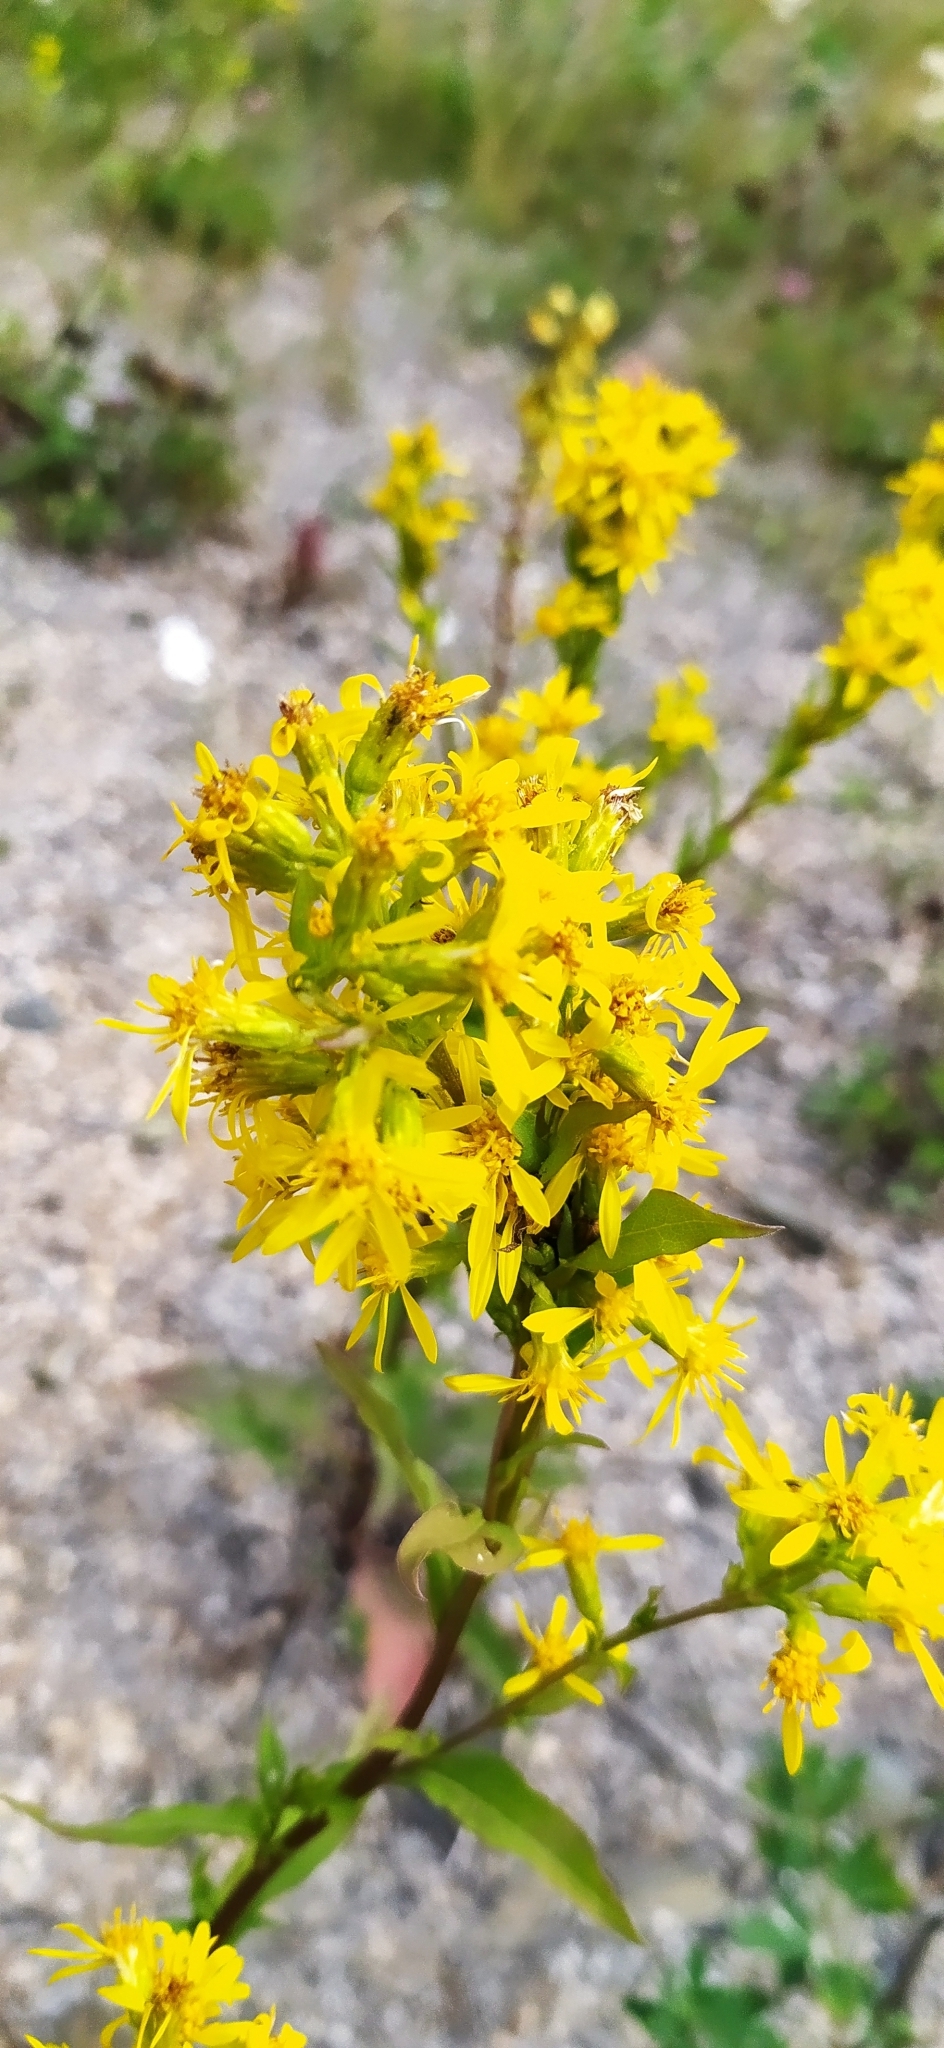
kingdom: Plantae
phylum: Tracheophyta
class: Magnoliopsida
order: Asterales
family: Asteraceae
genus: Solidago
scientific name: Solidago virgaurea
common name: Goldenrod
